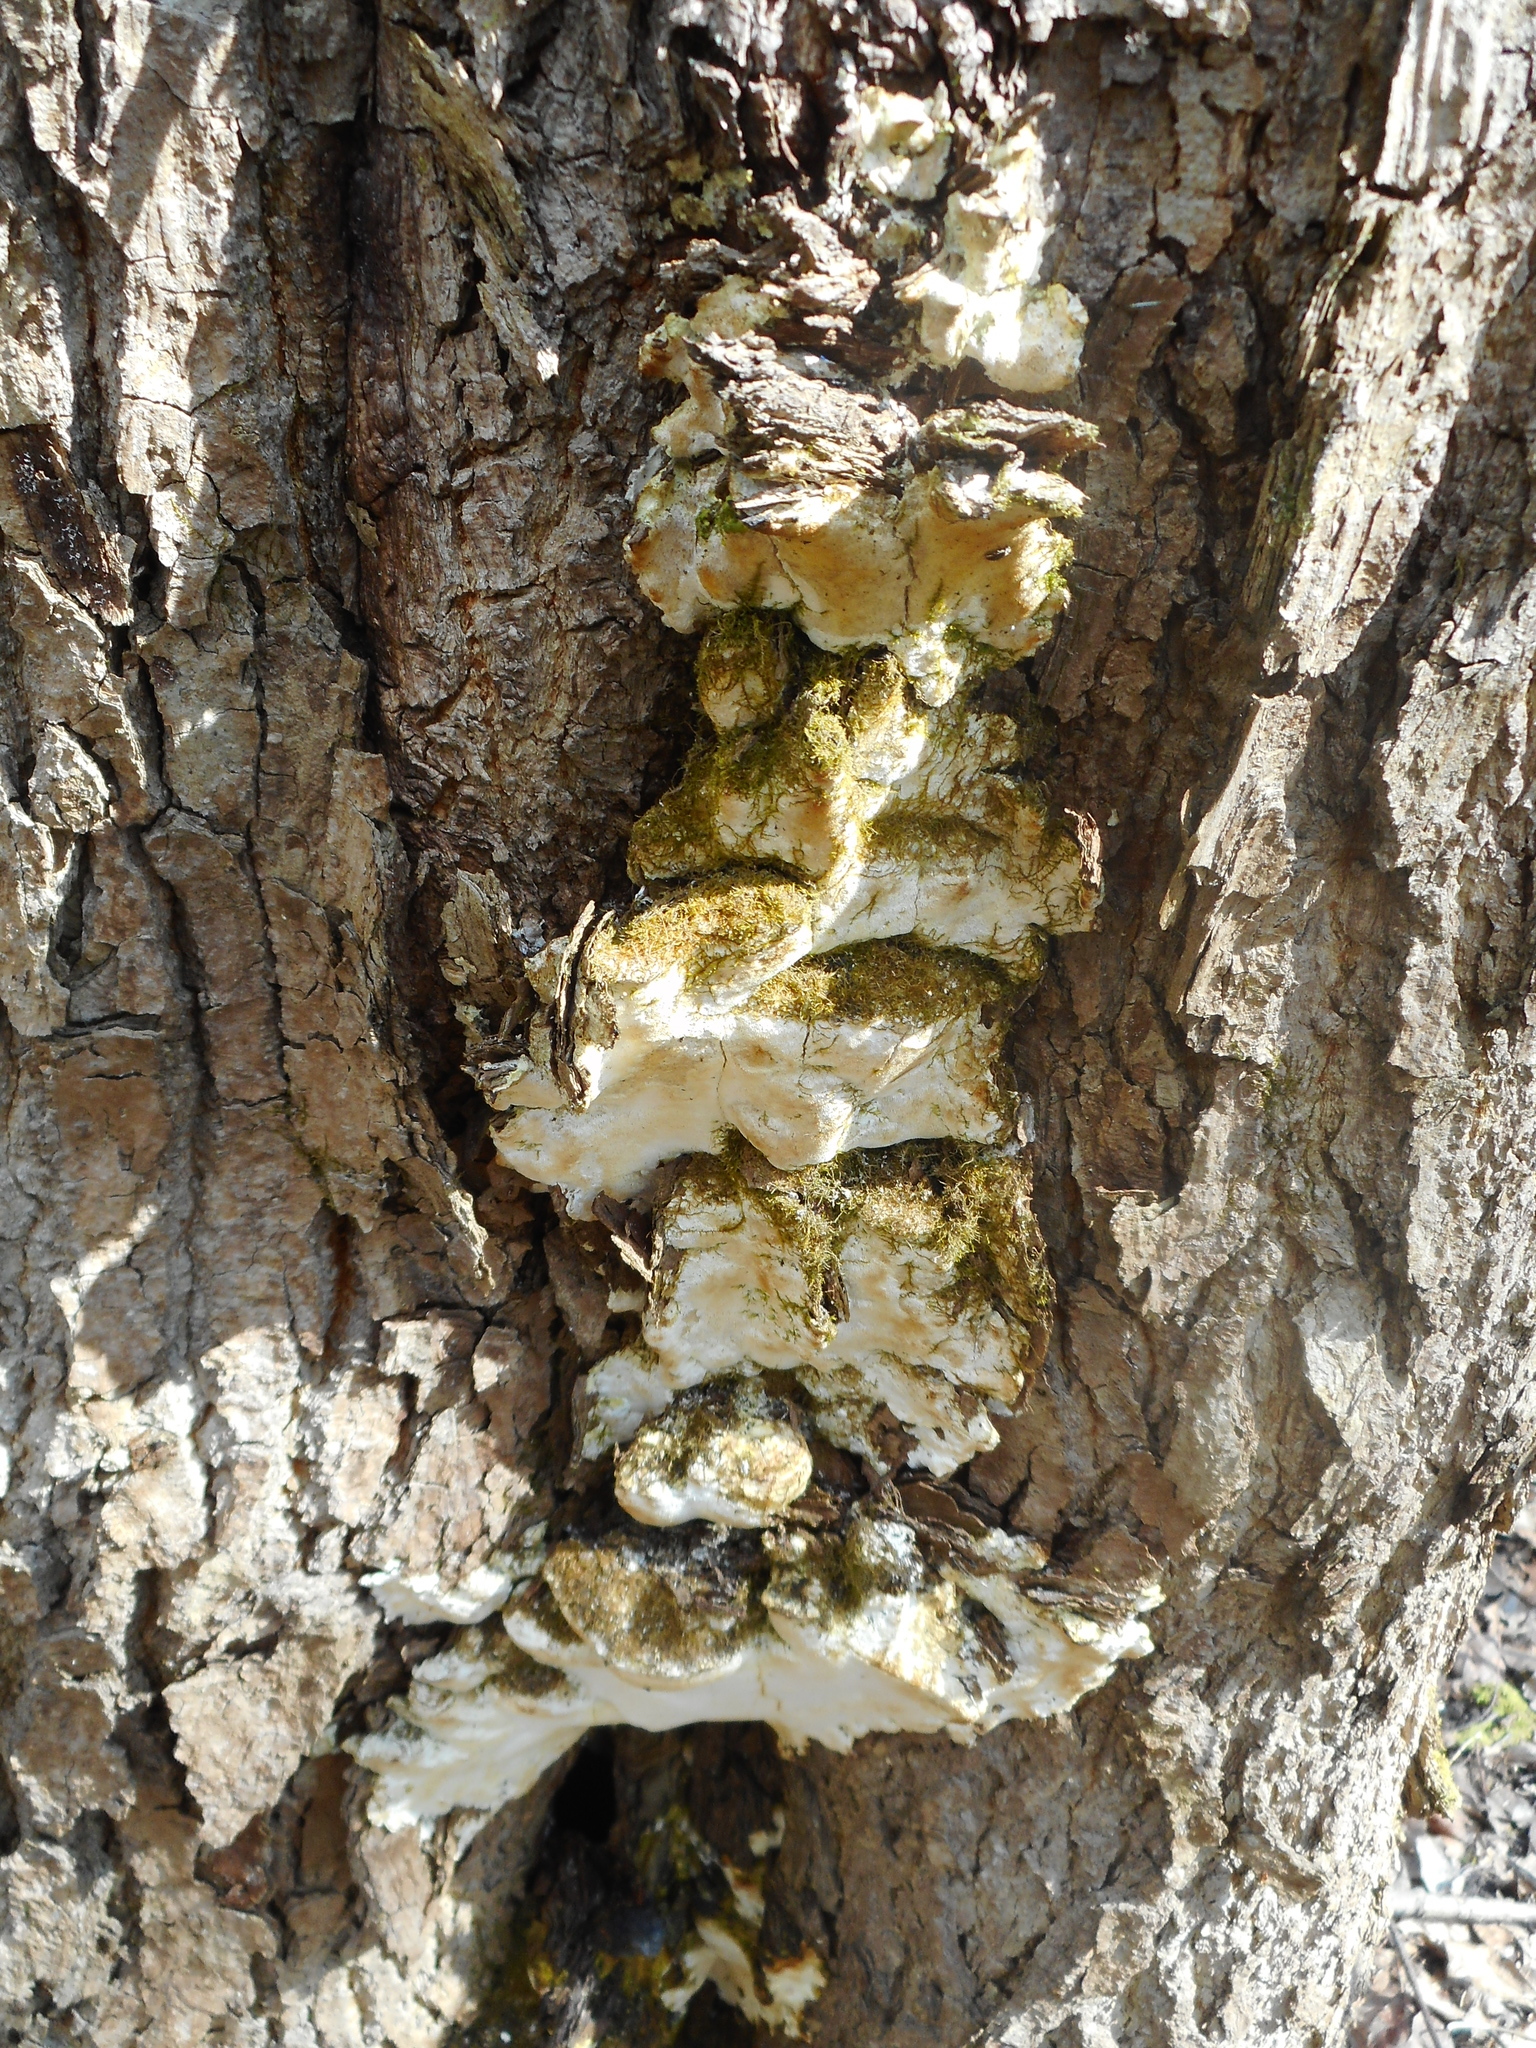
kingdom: Fungi
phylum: Basidiomycota
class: Agaricomycetes
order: Hymenochaetales
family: Oxyporaceae
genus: Oxyporus
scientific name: Oxyporus populinus
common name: Poplar bracket
